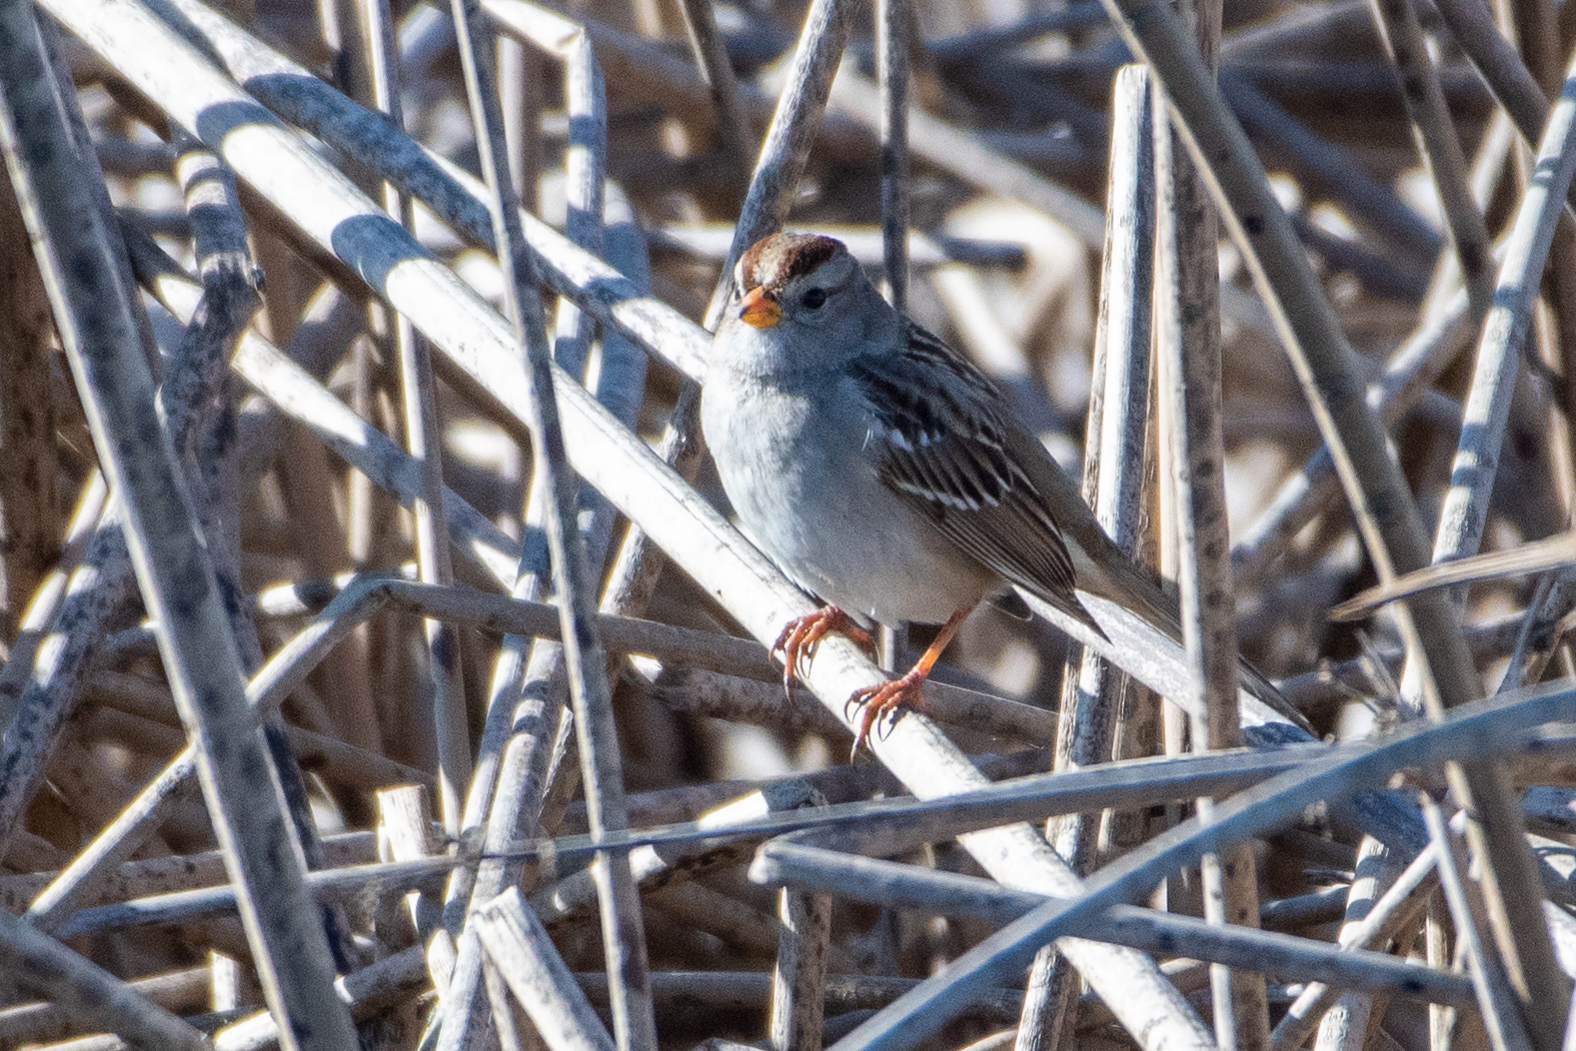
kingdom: Animalia
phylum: Chordata
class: Aves
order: Passeriformes
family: Passerellidae
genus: Zonotrichia
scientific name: Zonotrichia leucophrys
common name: White-crowned sparrow
